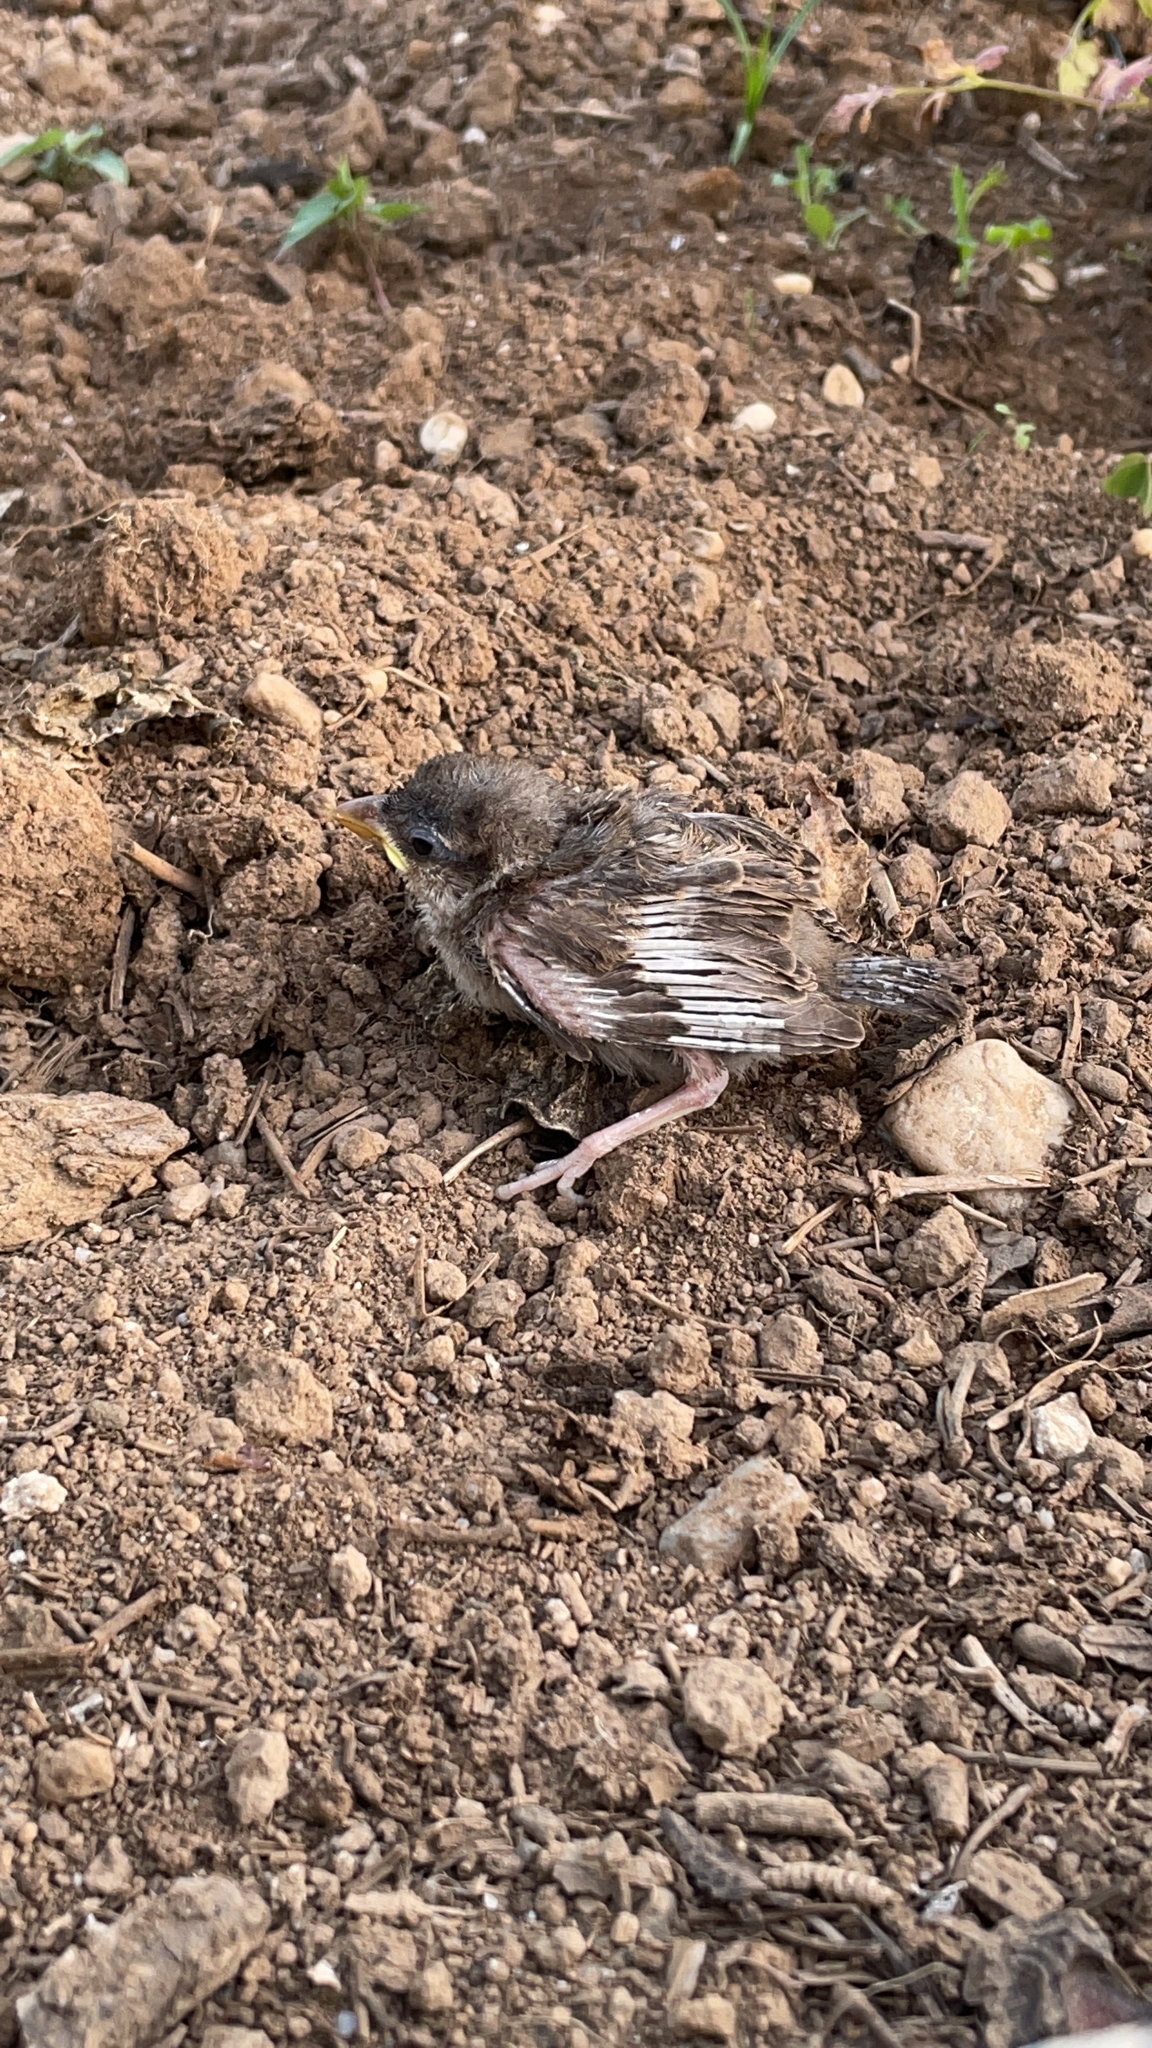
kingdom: Animalia
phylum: Chordata
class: Aves
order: Passeriformes
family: Passeridae
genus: Passer
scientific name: Passer domesticus
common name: House sparrow
